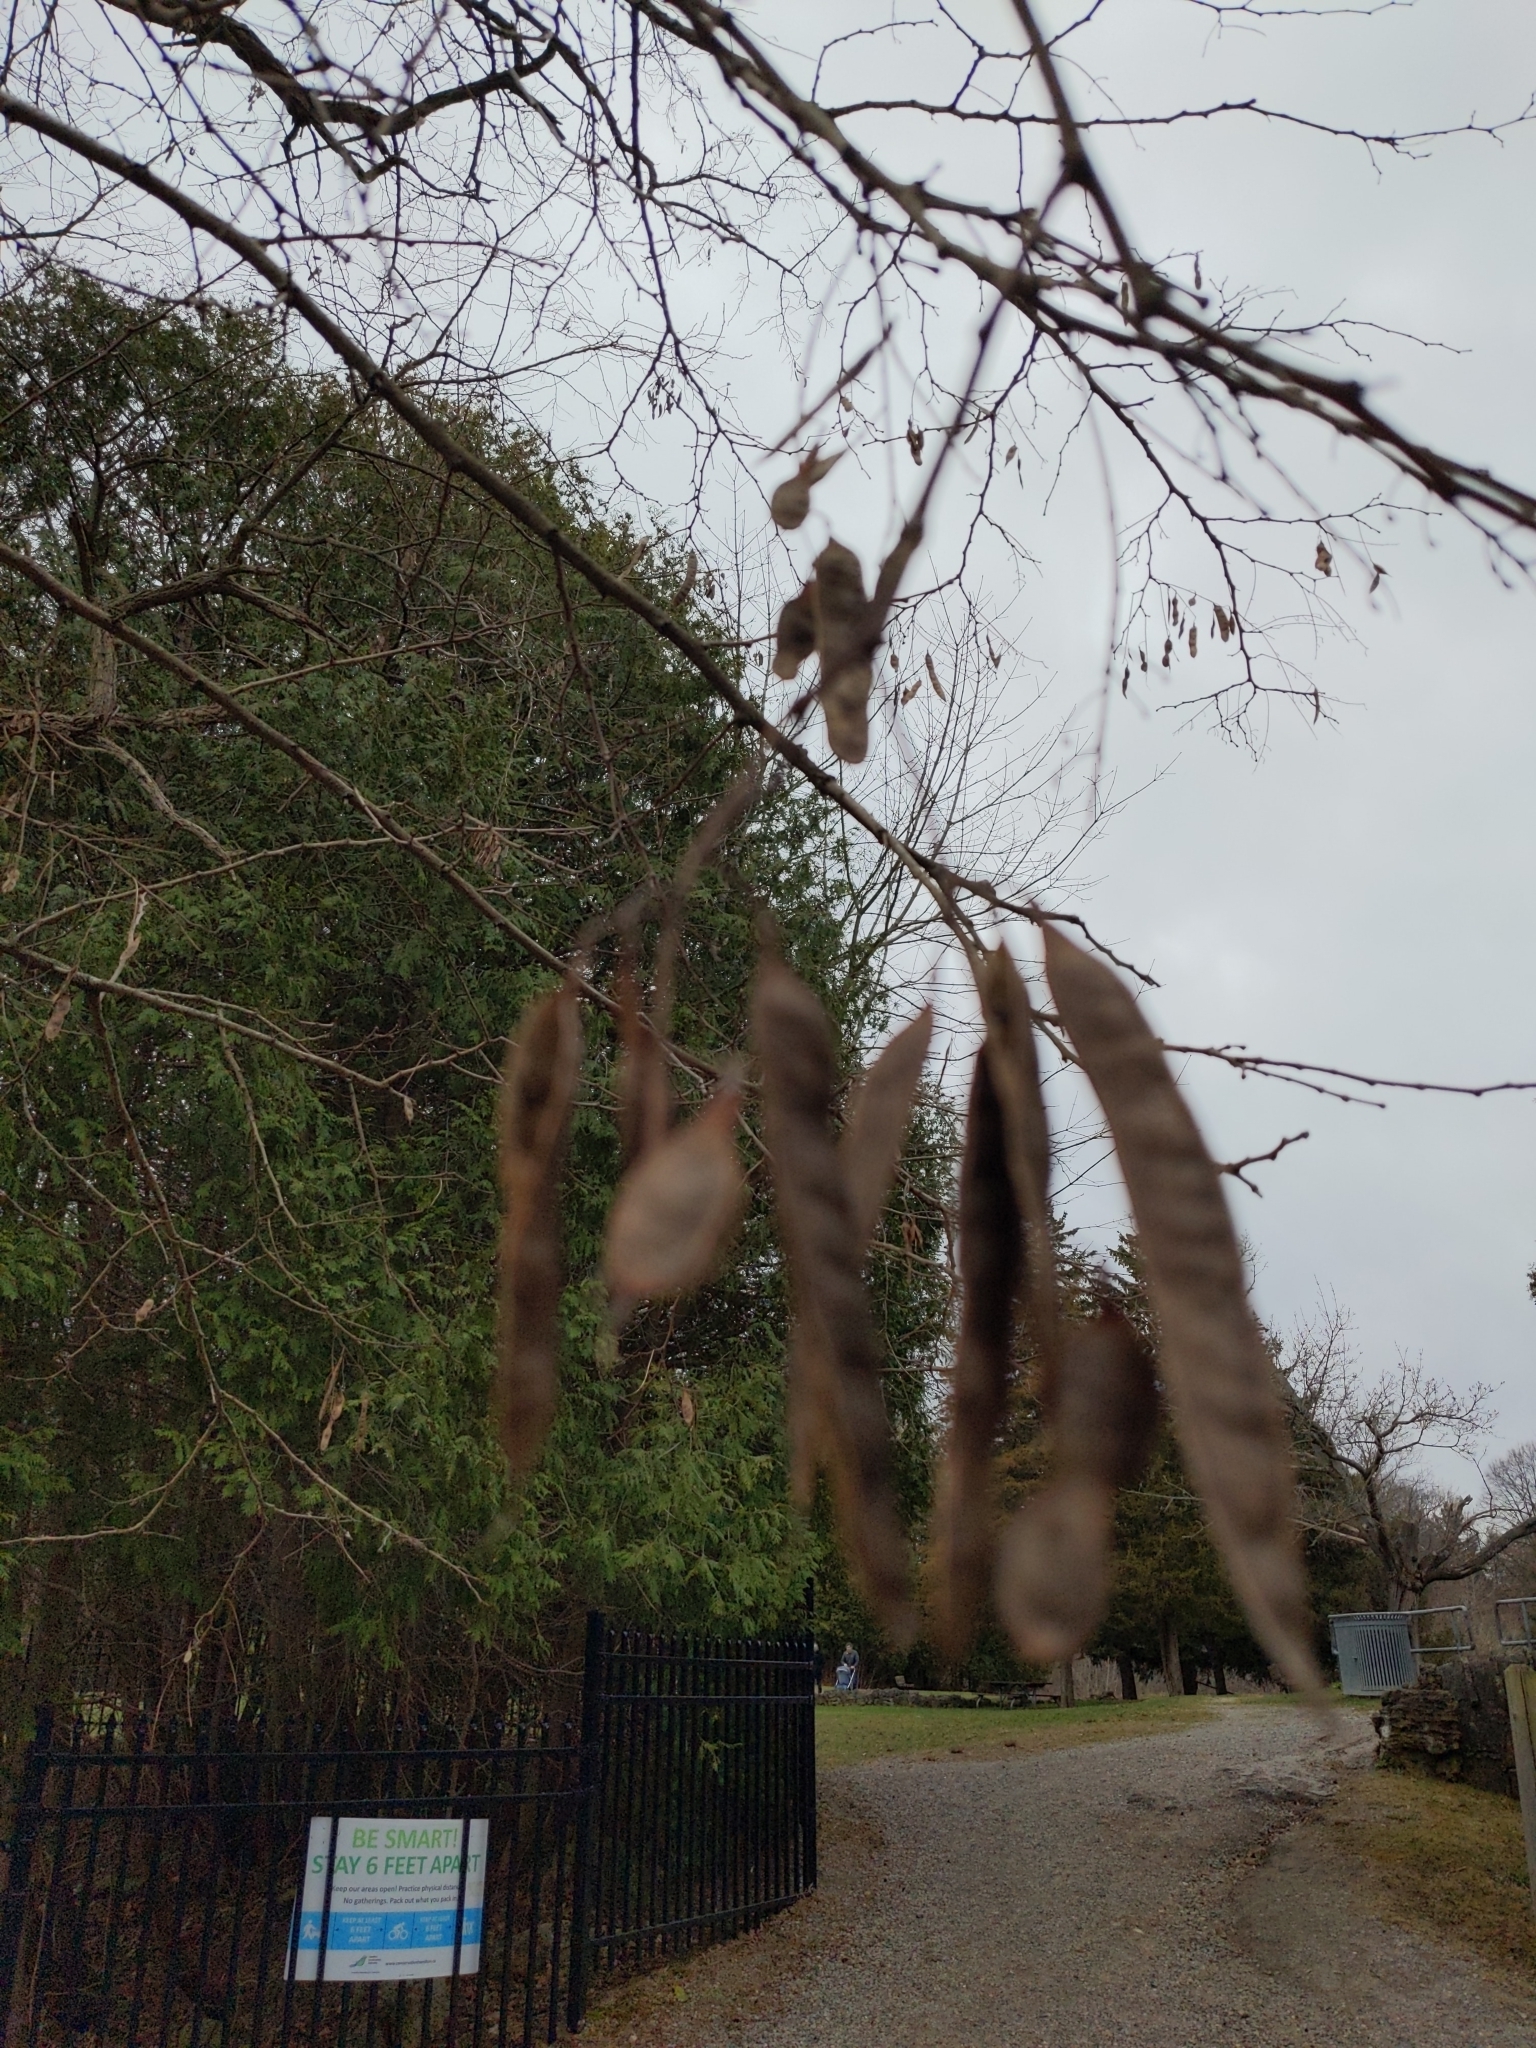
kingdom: Plantae
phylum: Tracheophyta
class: Magnoliopsida
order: Fabales
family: Fabaceae
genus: Robinia
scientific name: Robinia pseudoacacia
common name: Black locust
